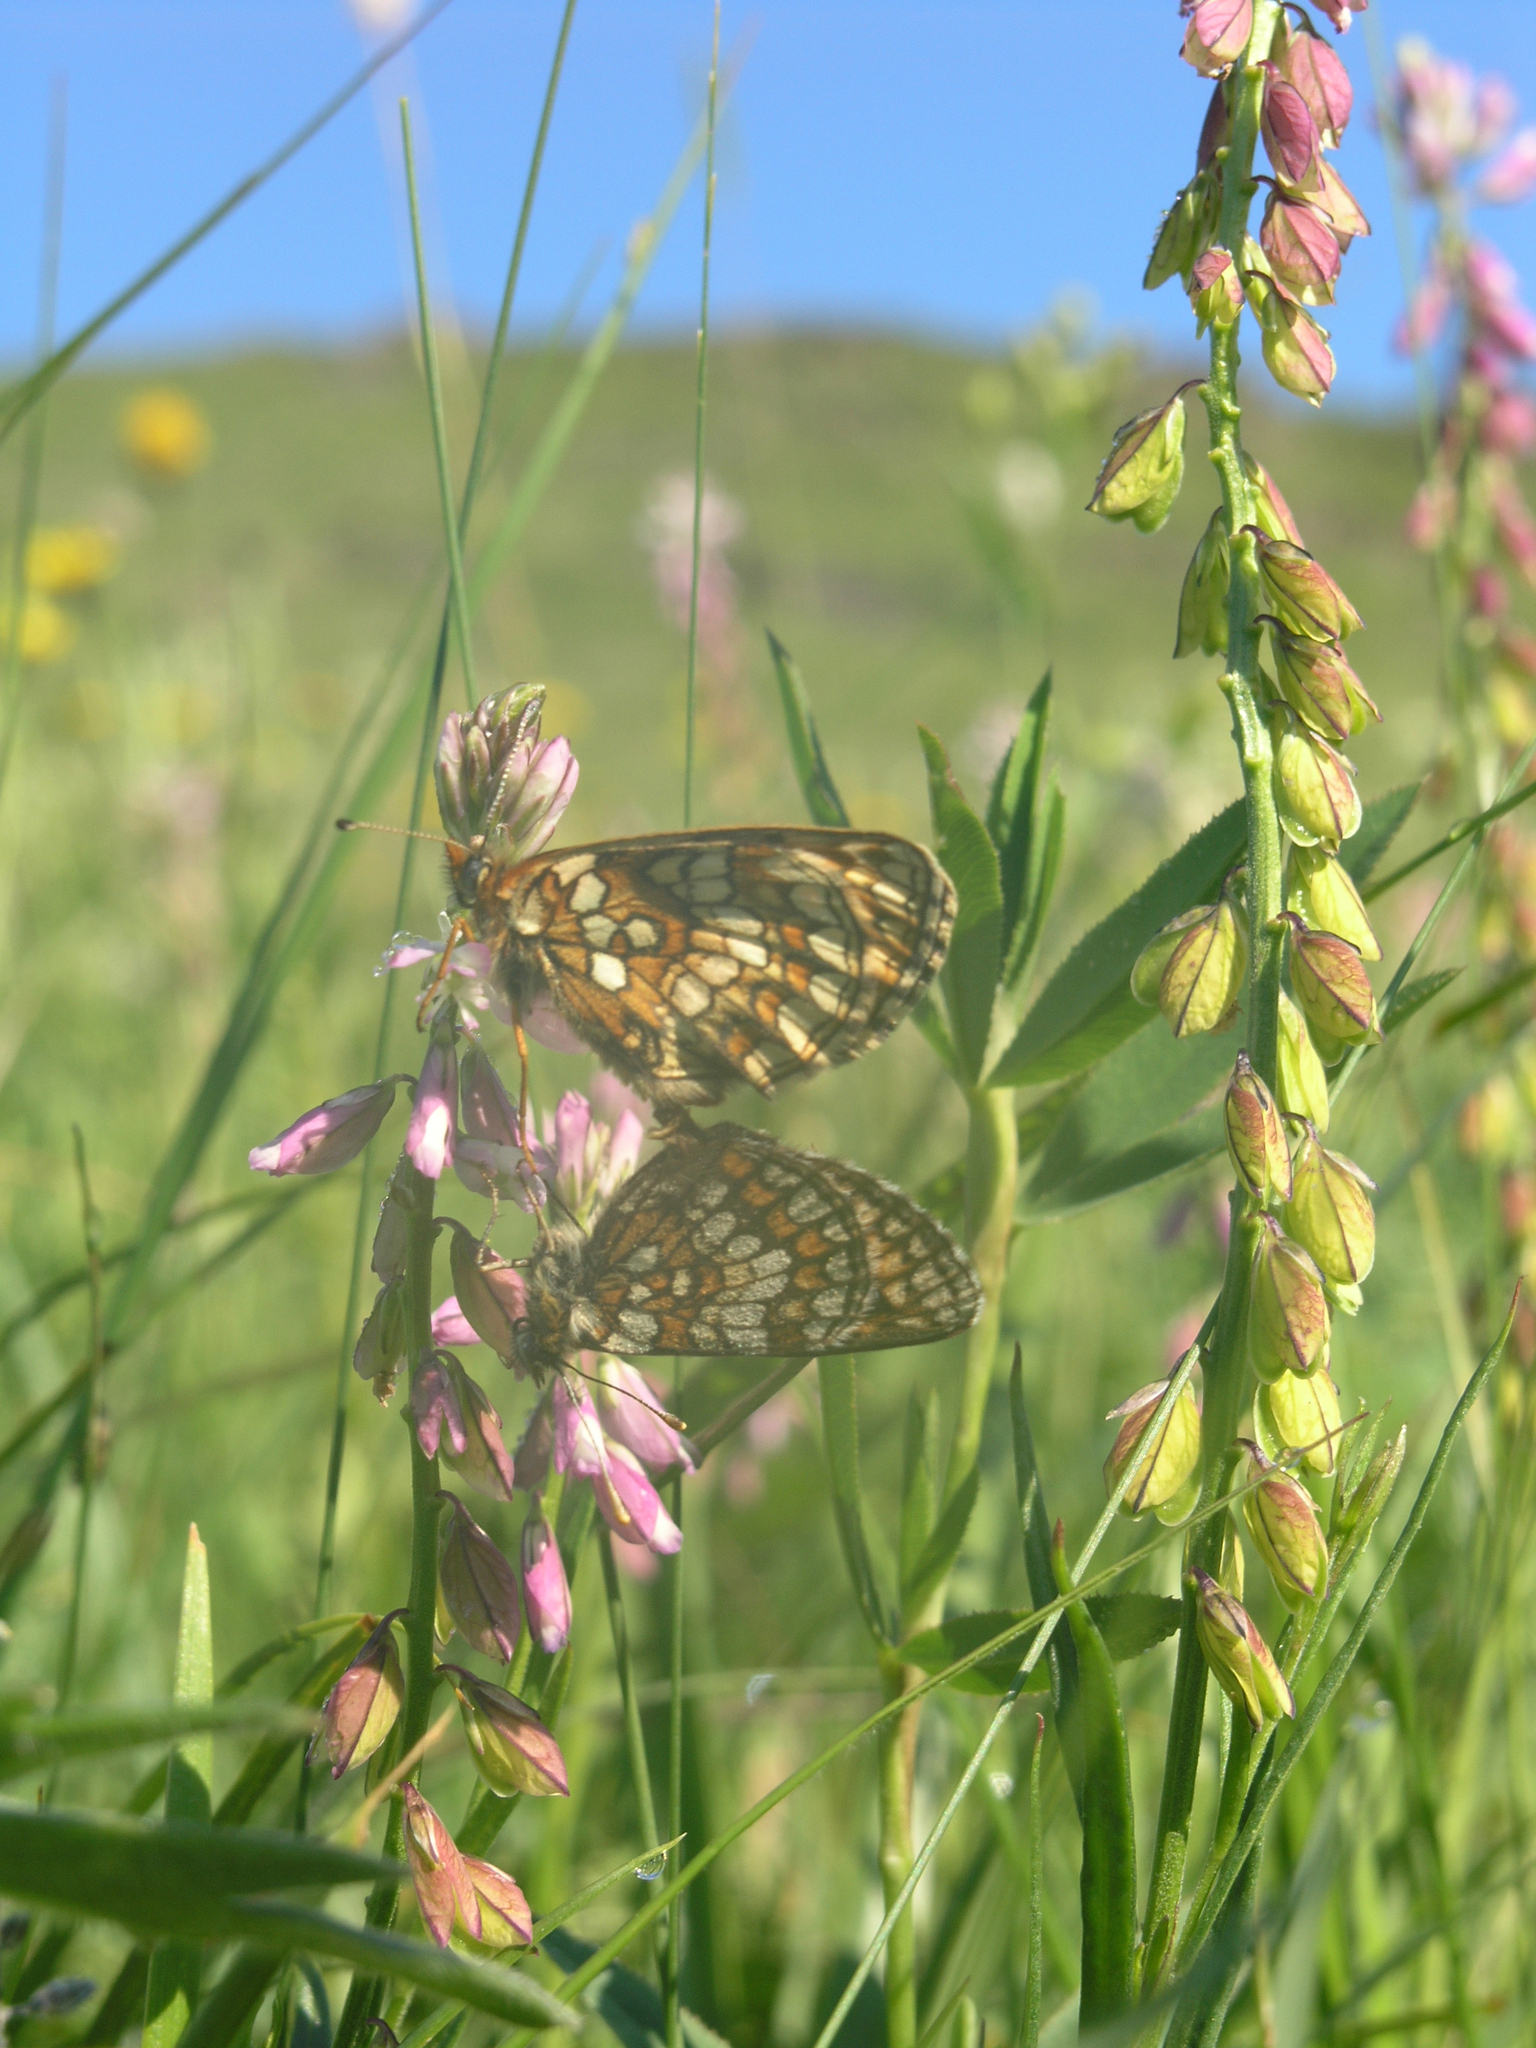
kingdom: Plantae
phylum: Tracheophyta
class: Magnoliopsida
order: Fabales
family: Polygalaceae
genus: Polygala
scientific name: Polygala comosa
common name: Tufted milkwort
